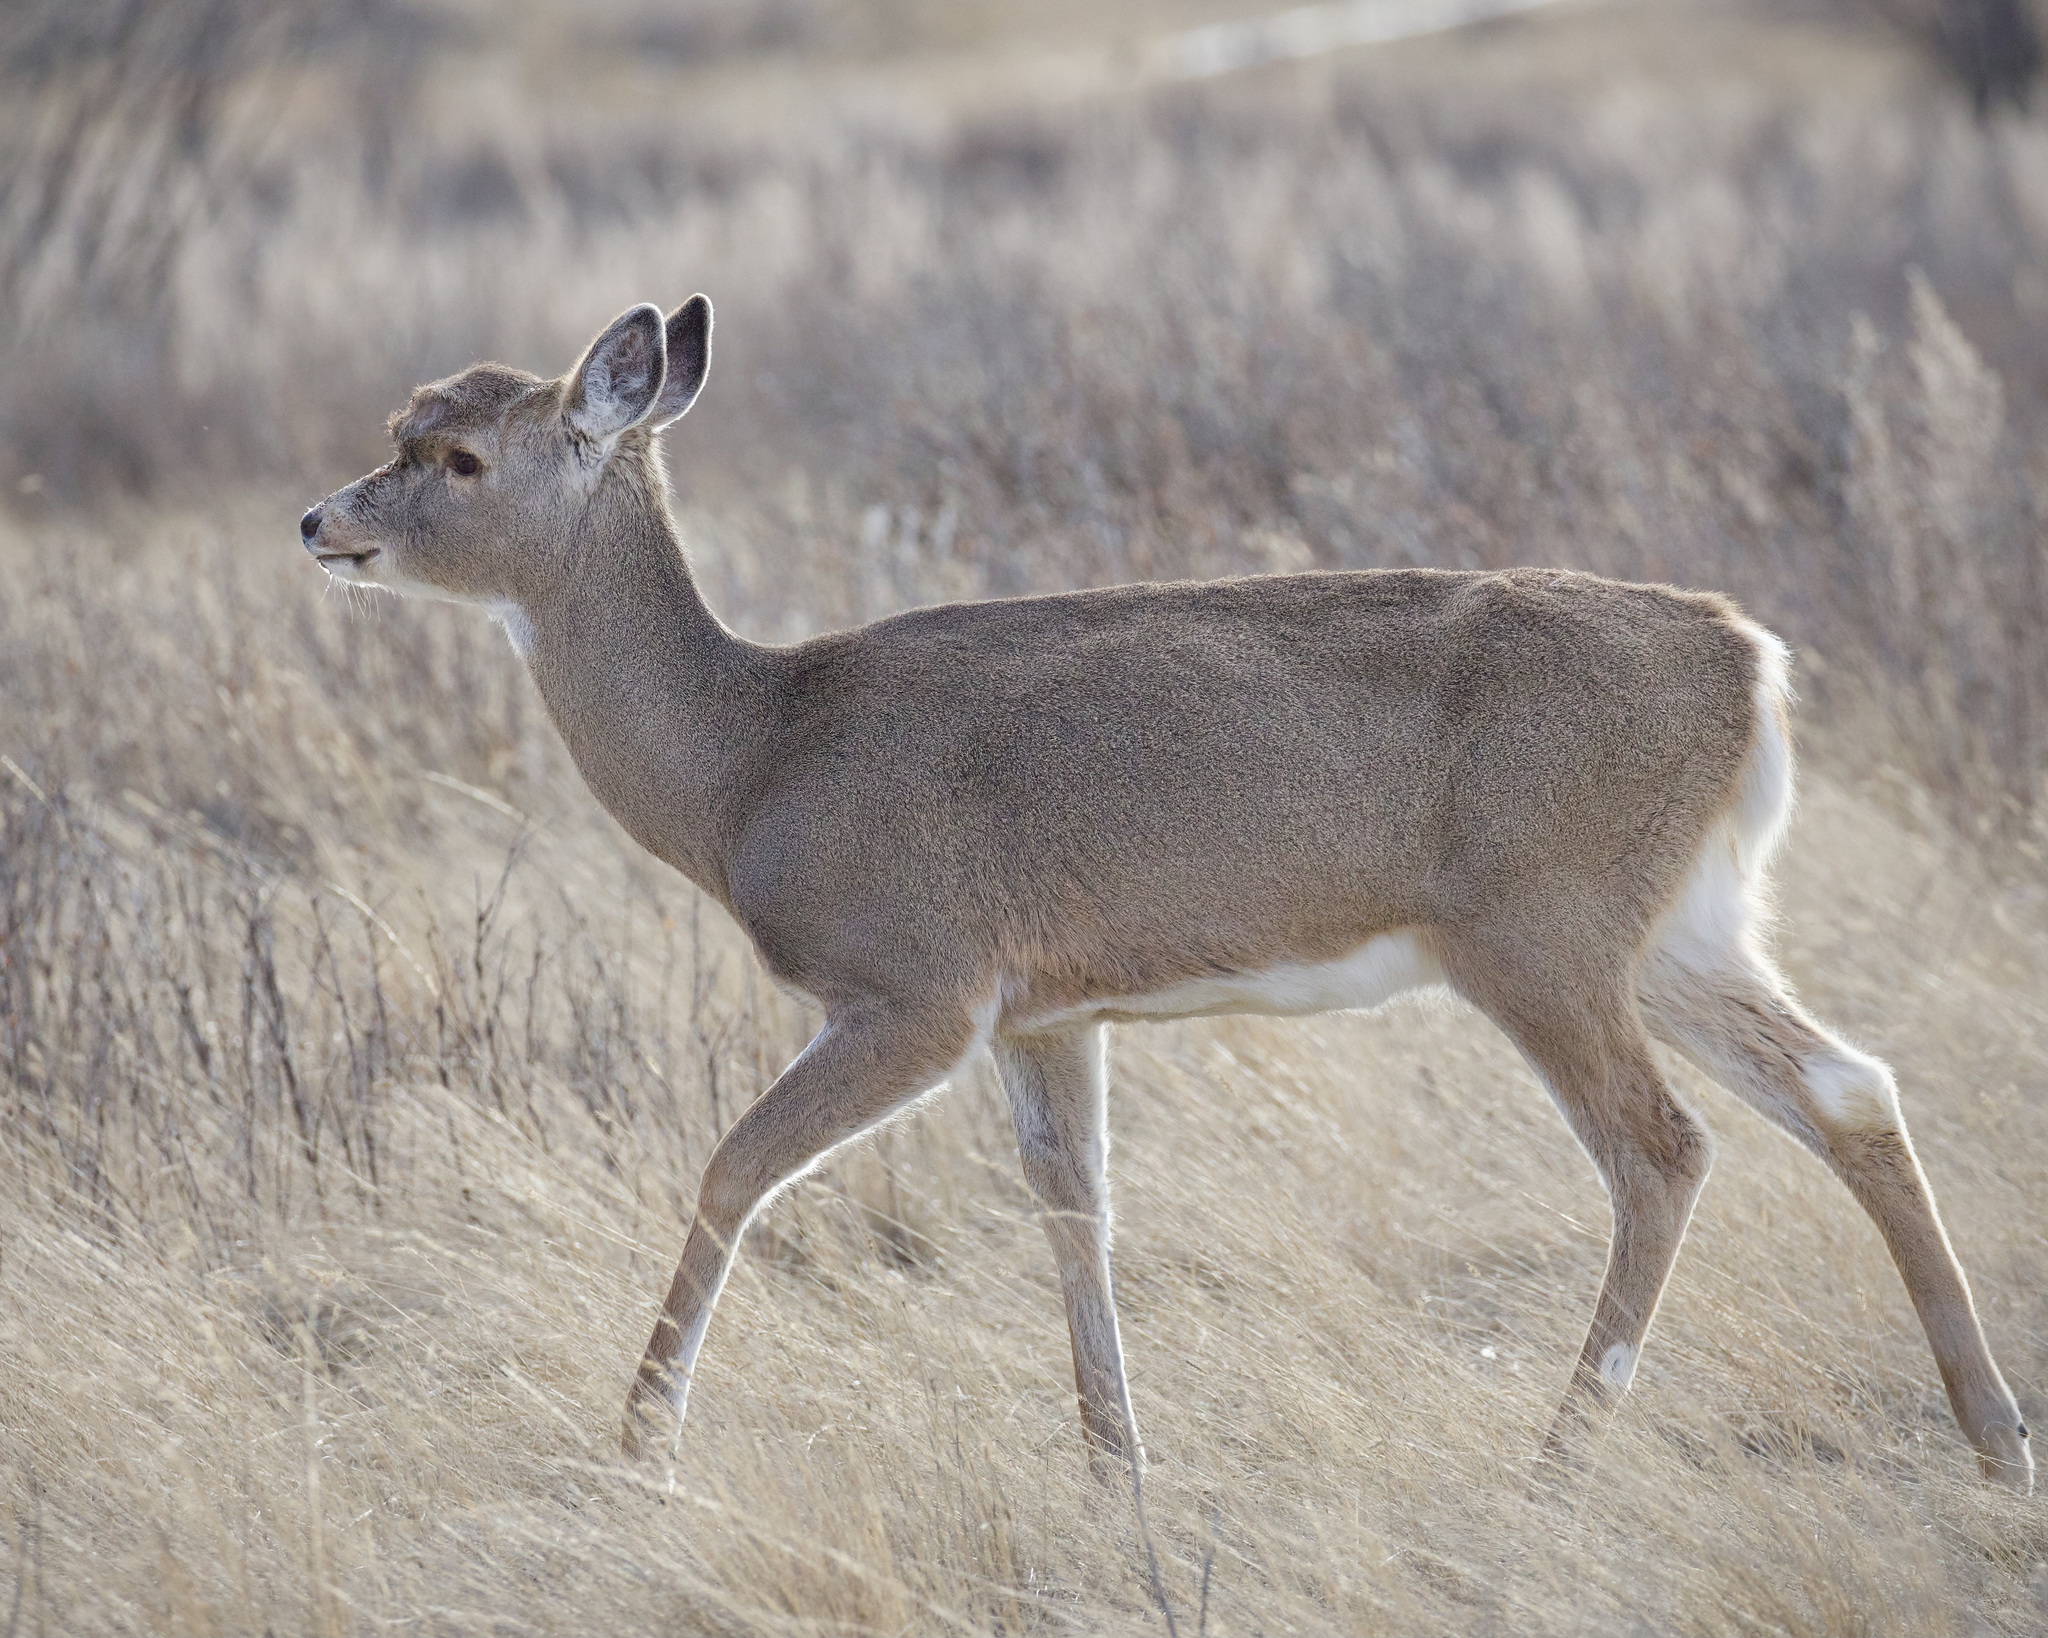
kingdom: Animalia
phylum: Chordata
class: Mammalia
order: Artiodactyla
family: Cervidae
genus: Odocoileus
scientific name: Odocoileus virginianus
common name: White-tailed deer
